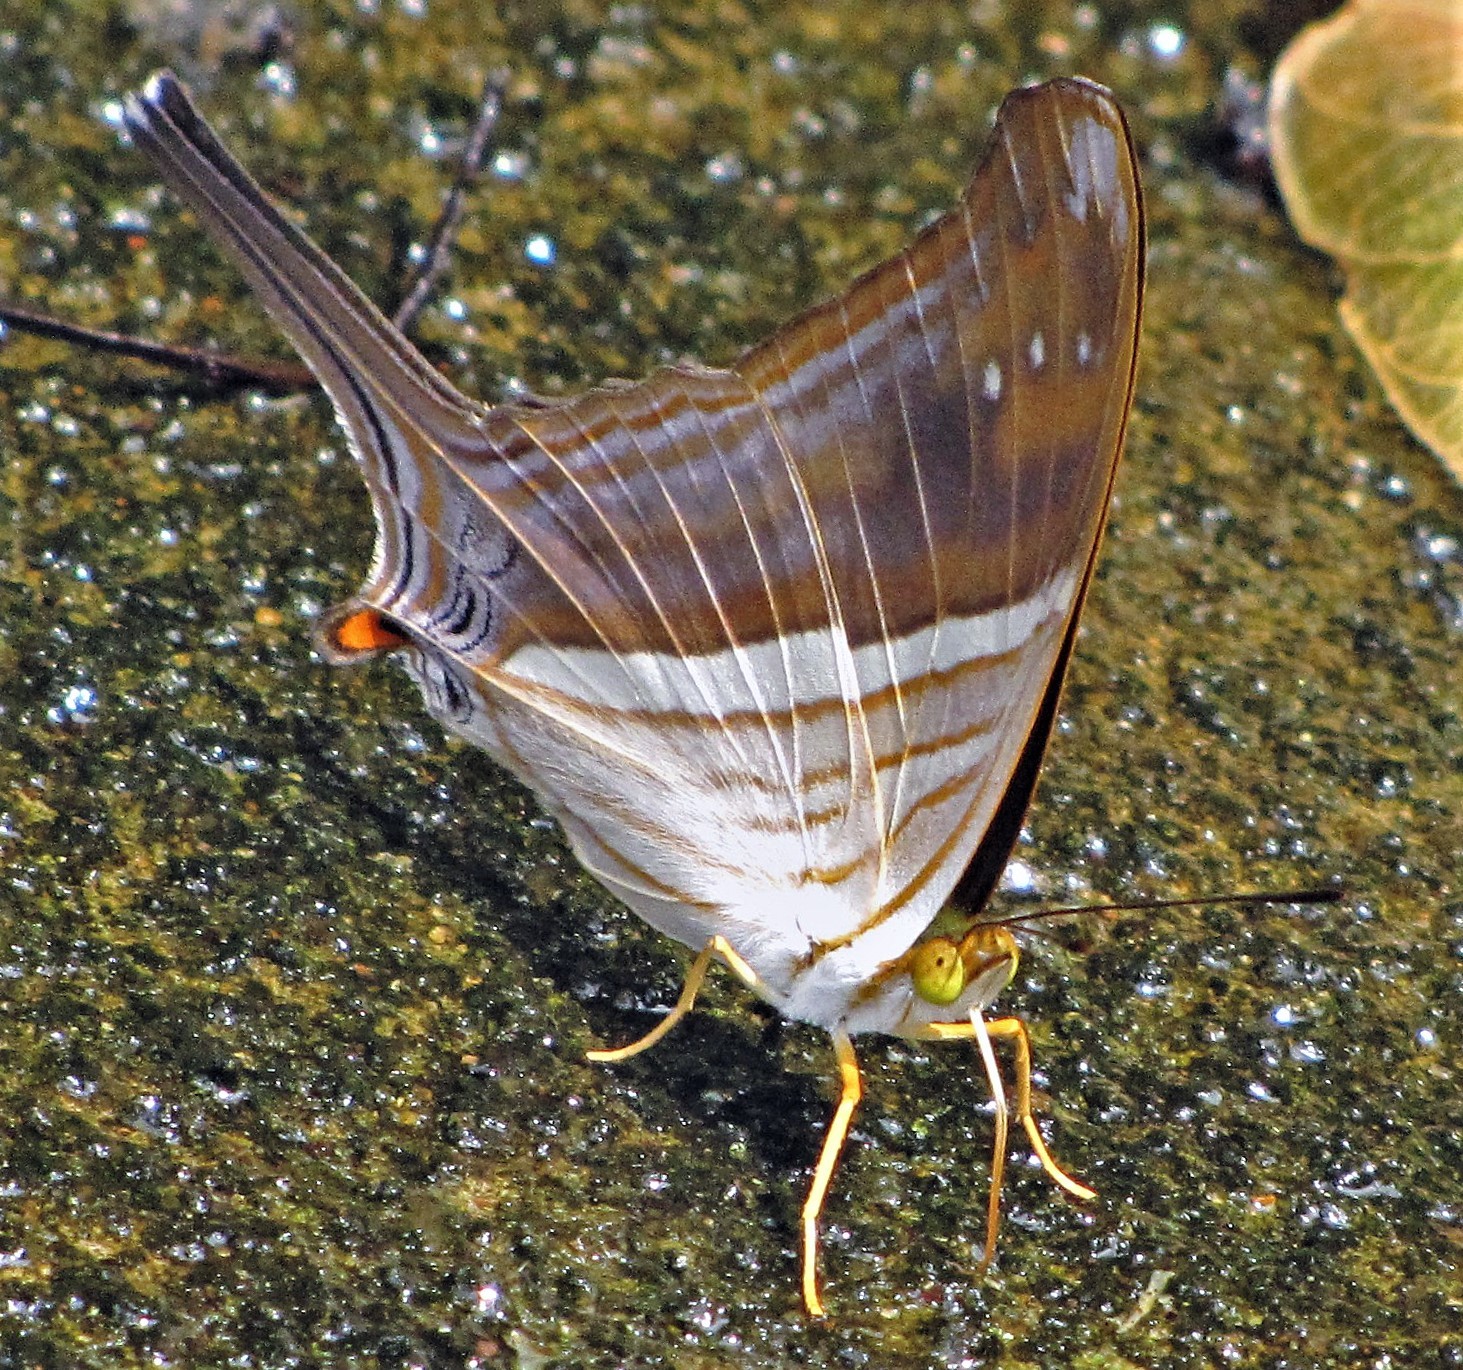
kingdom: Animalia
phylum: Arthropoda
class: Insecta
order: Lepidoptera
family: Nymphalidae
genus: Marpesia
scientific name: Marpesia chiron
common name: Many-banded daggerwing
